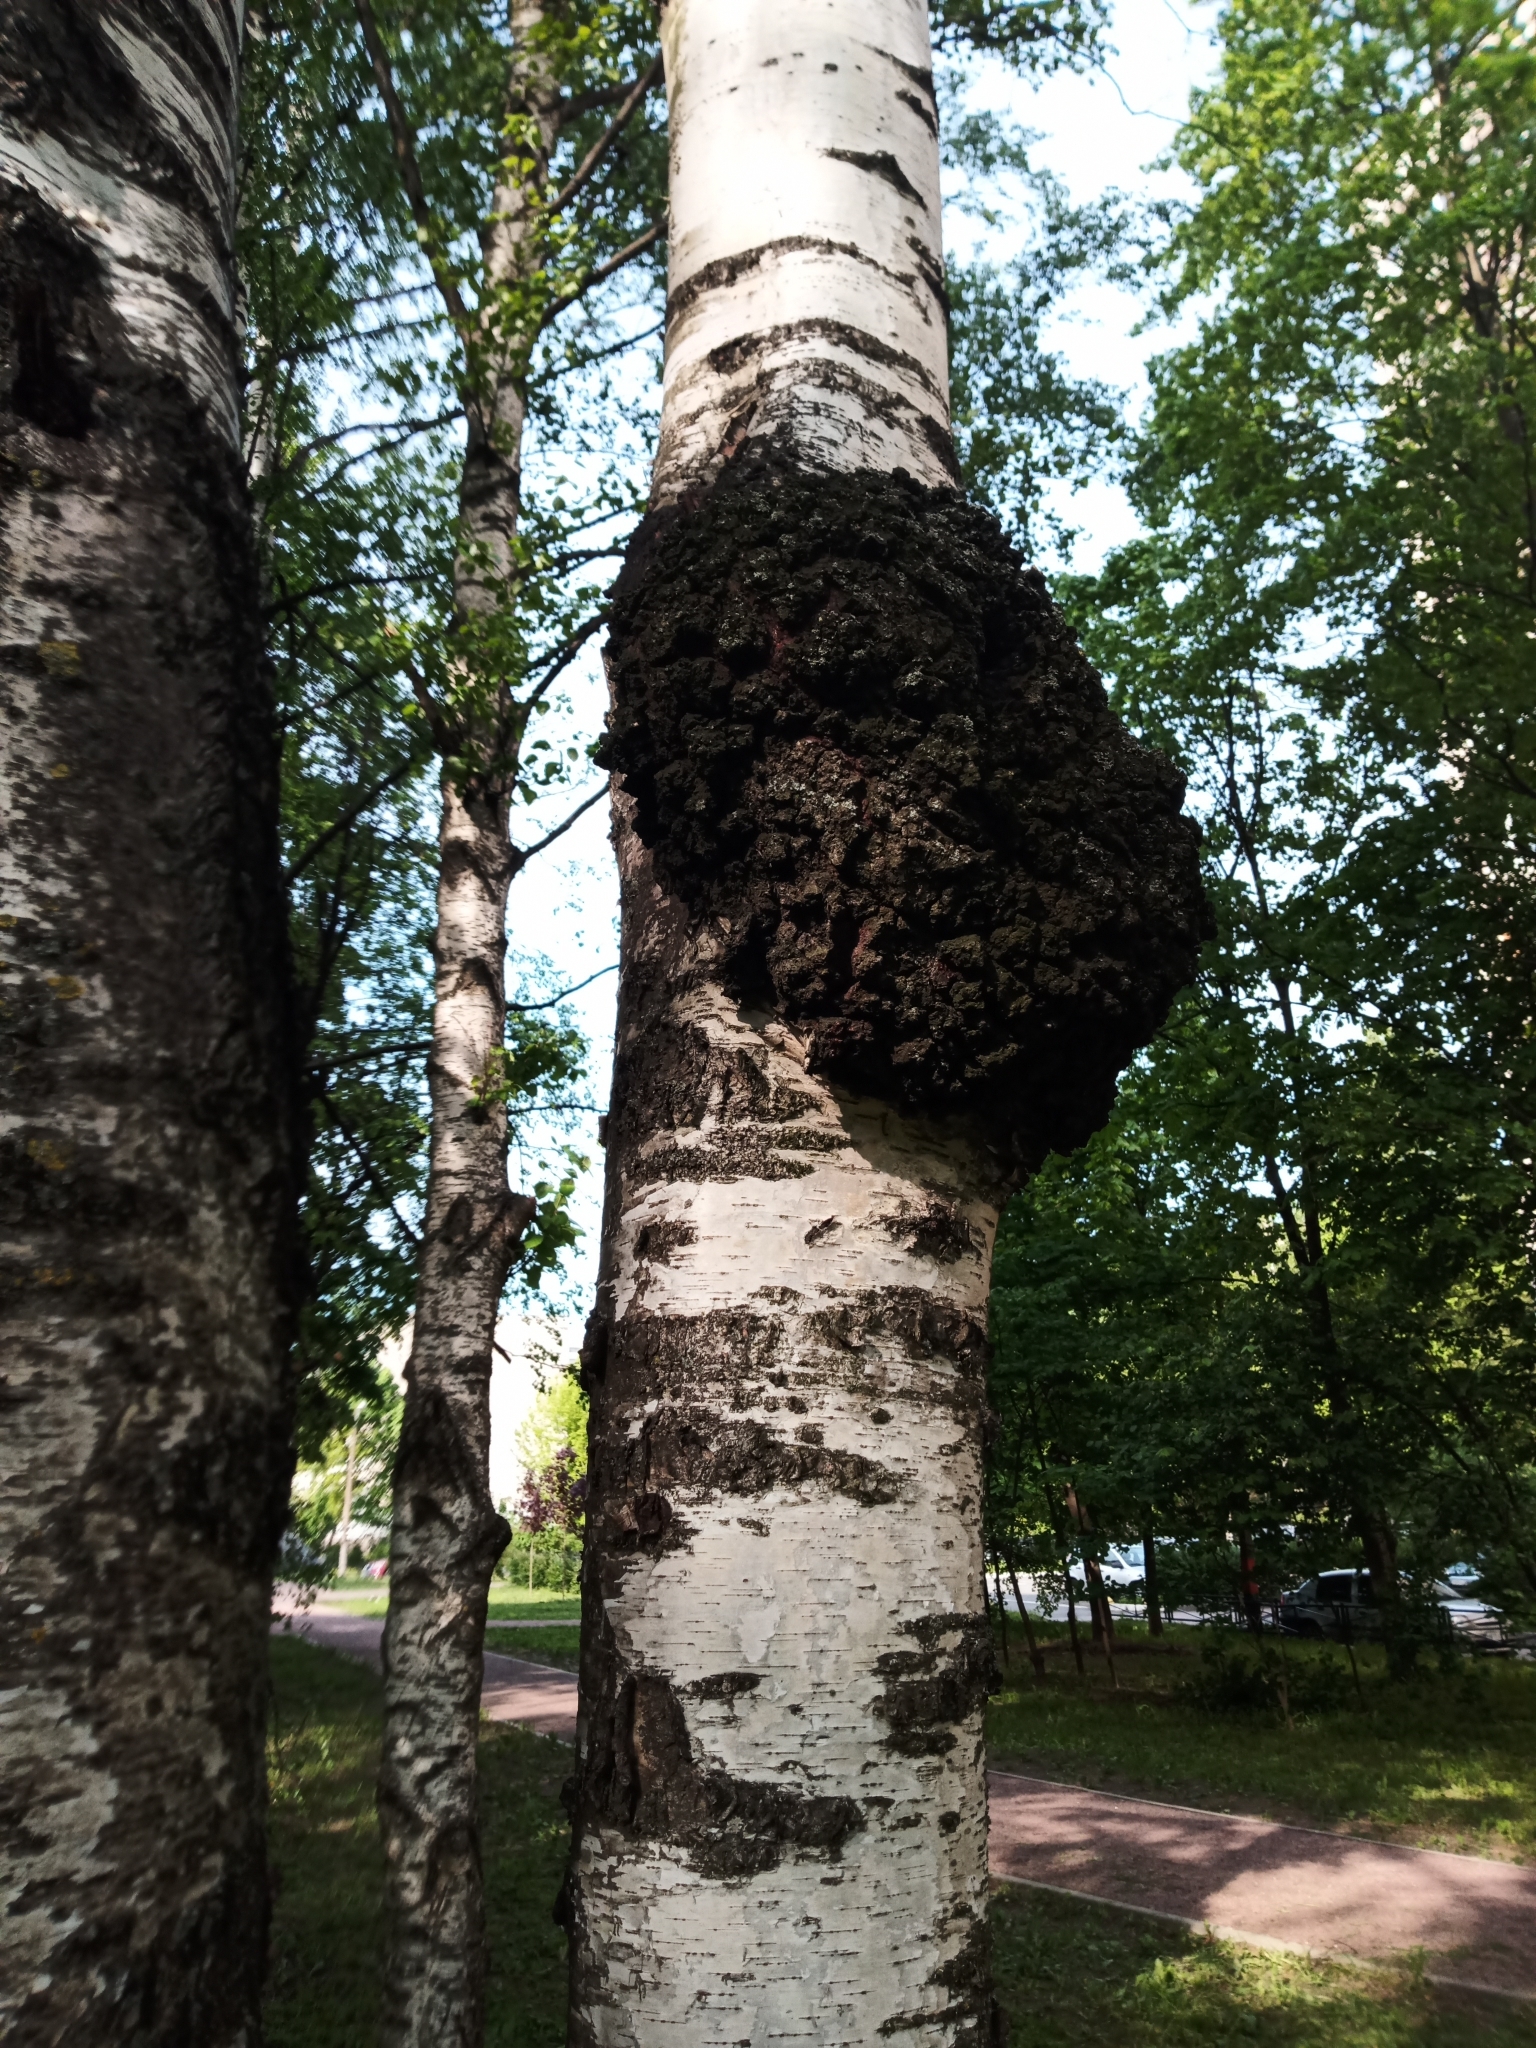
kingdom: Bacteria
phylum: Proteobacteria
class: Alphaproteobacteria
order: Rhizobiales
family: Rhizobiaceae
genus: Rhizobium
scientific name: Rhizobium Agrobacterium radiobacter
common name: Bacterial crown gall
